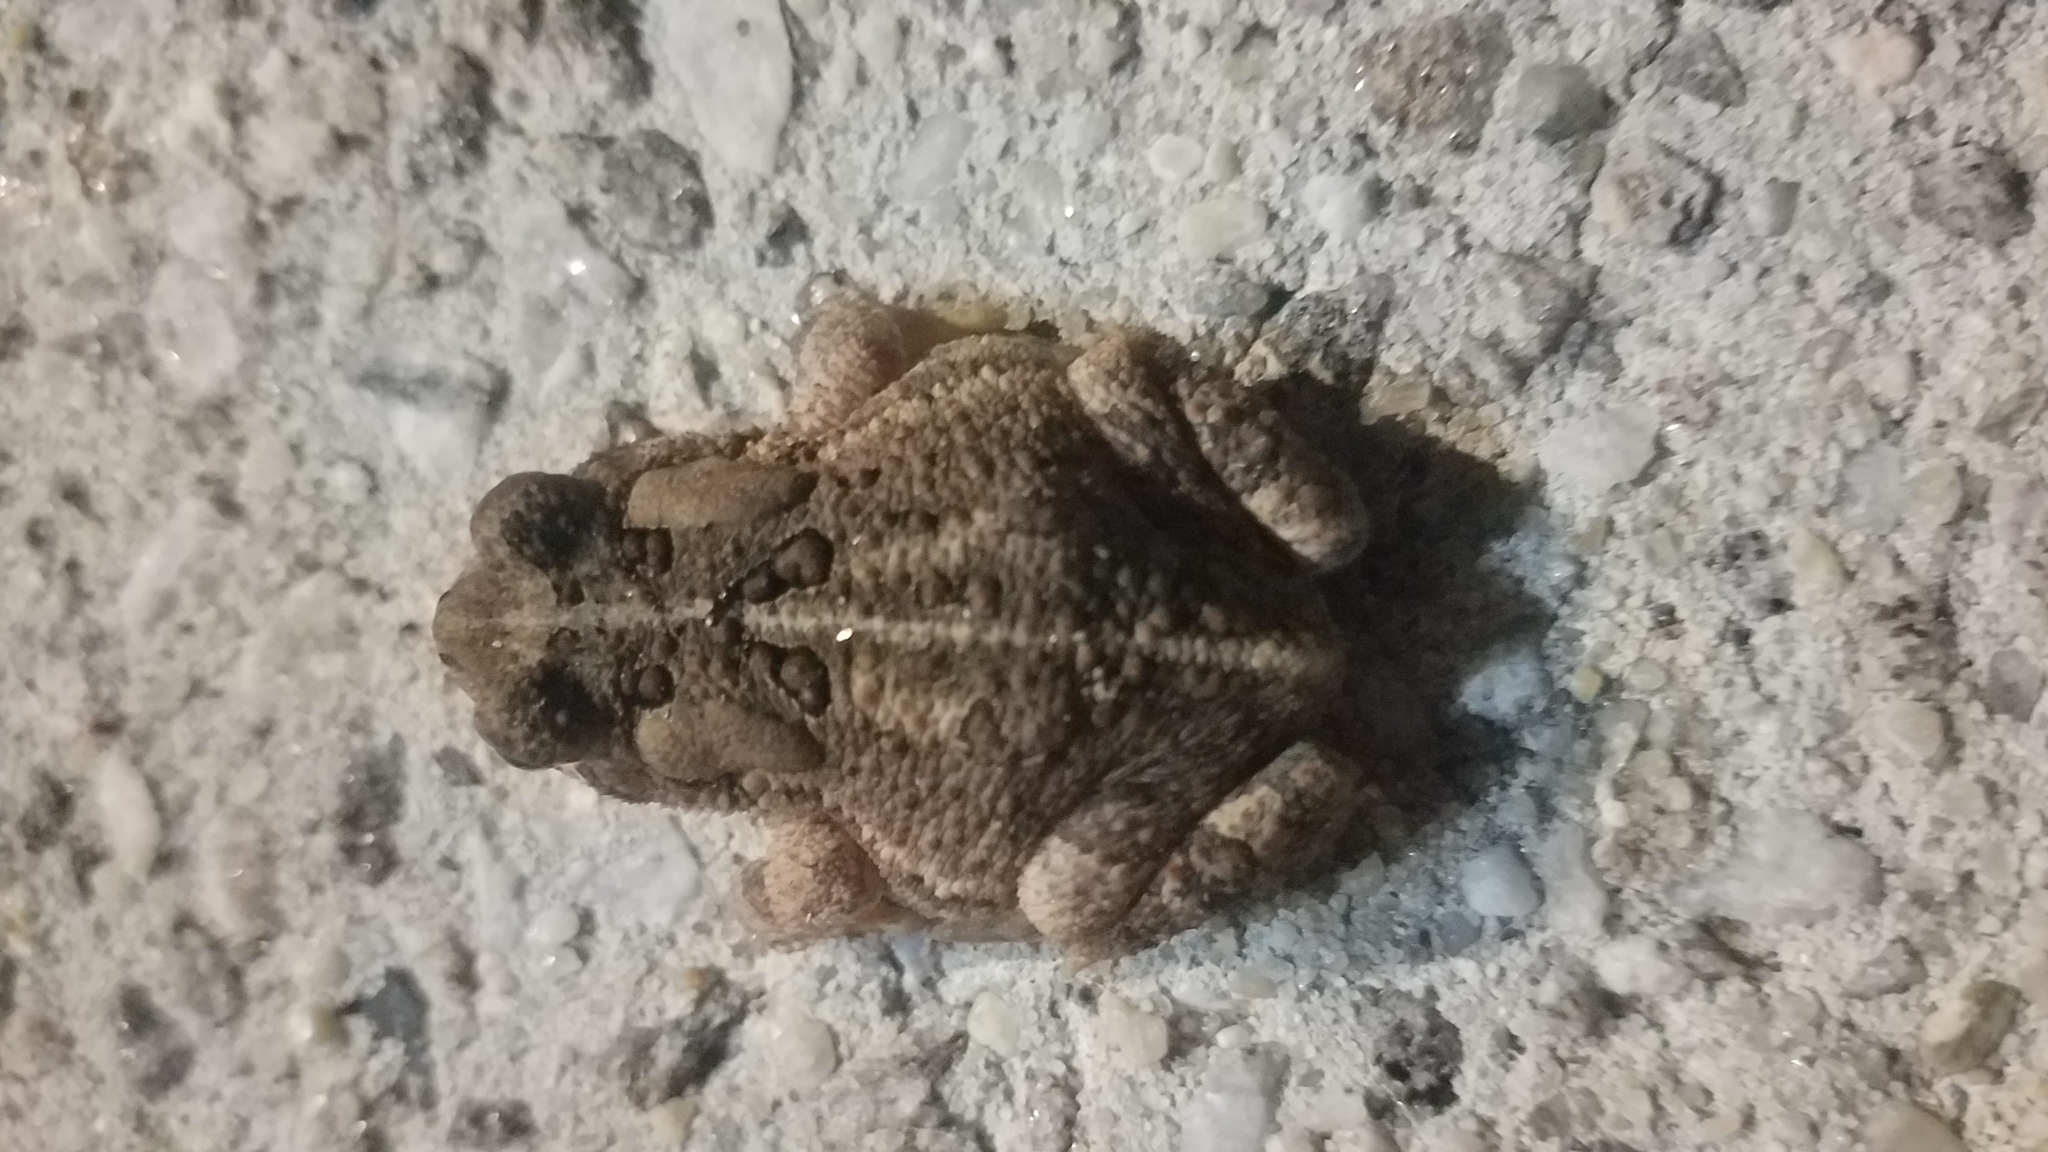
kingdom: Animalia
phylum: Chordata
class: Amphibia
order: Anura
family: Bufonidae
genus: Anaxyrus
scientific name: Anaxyrus americanus
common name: American toad
